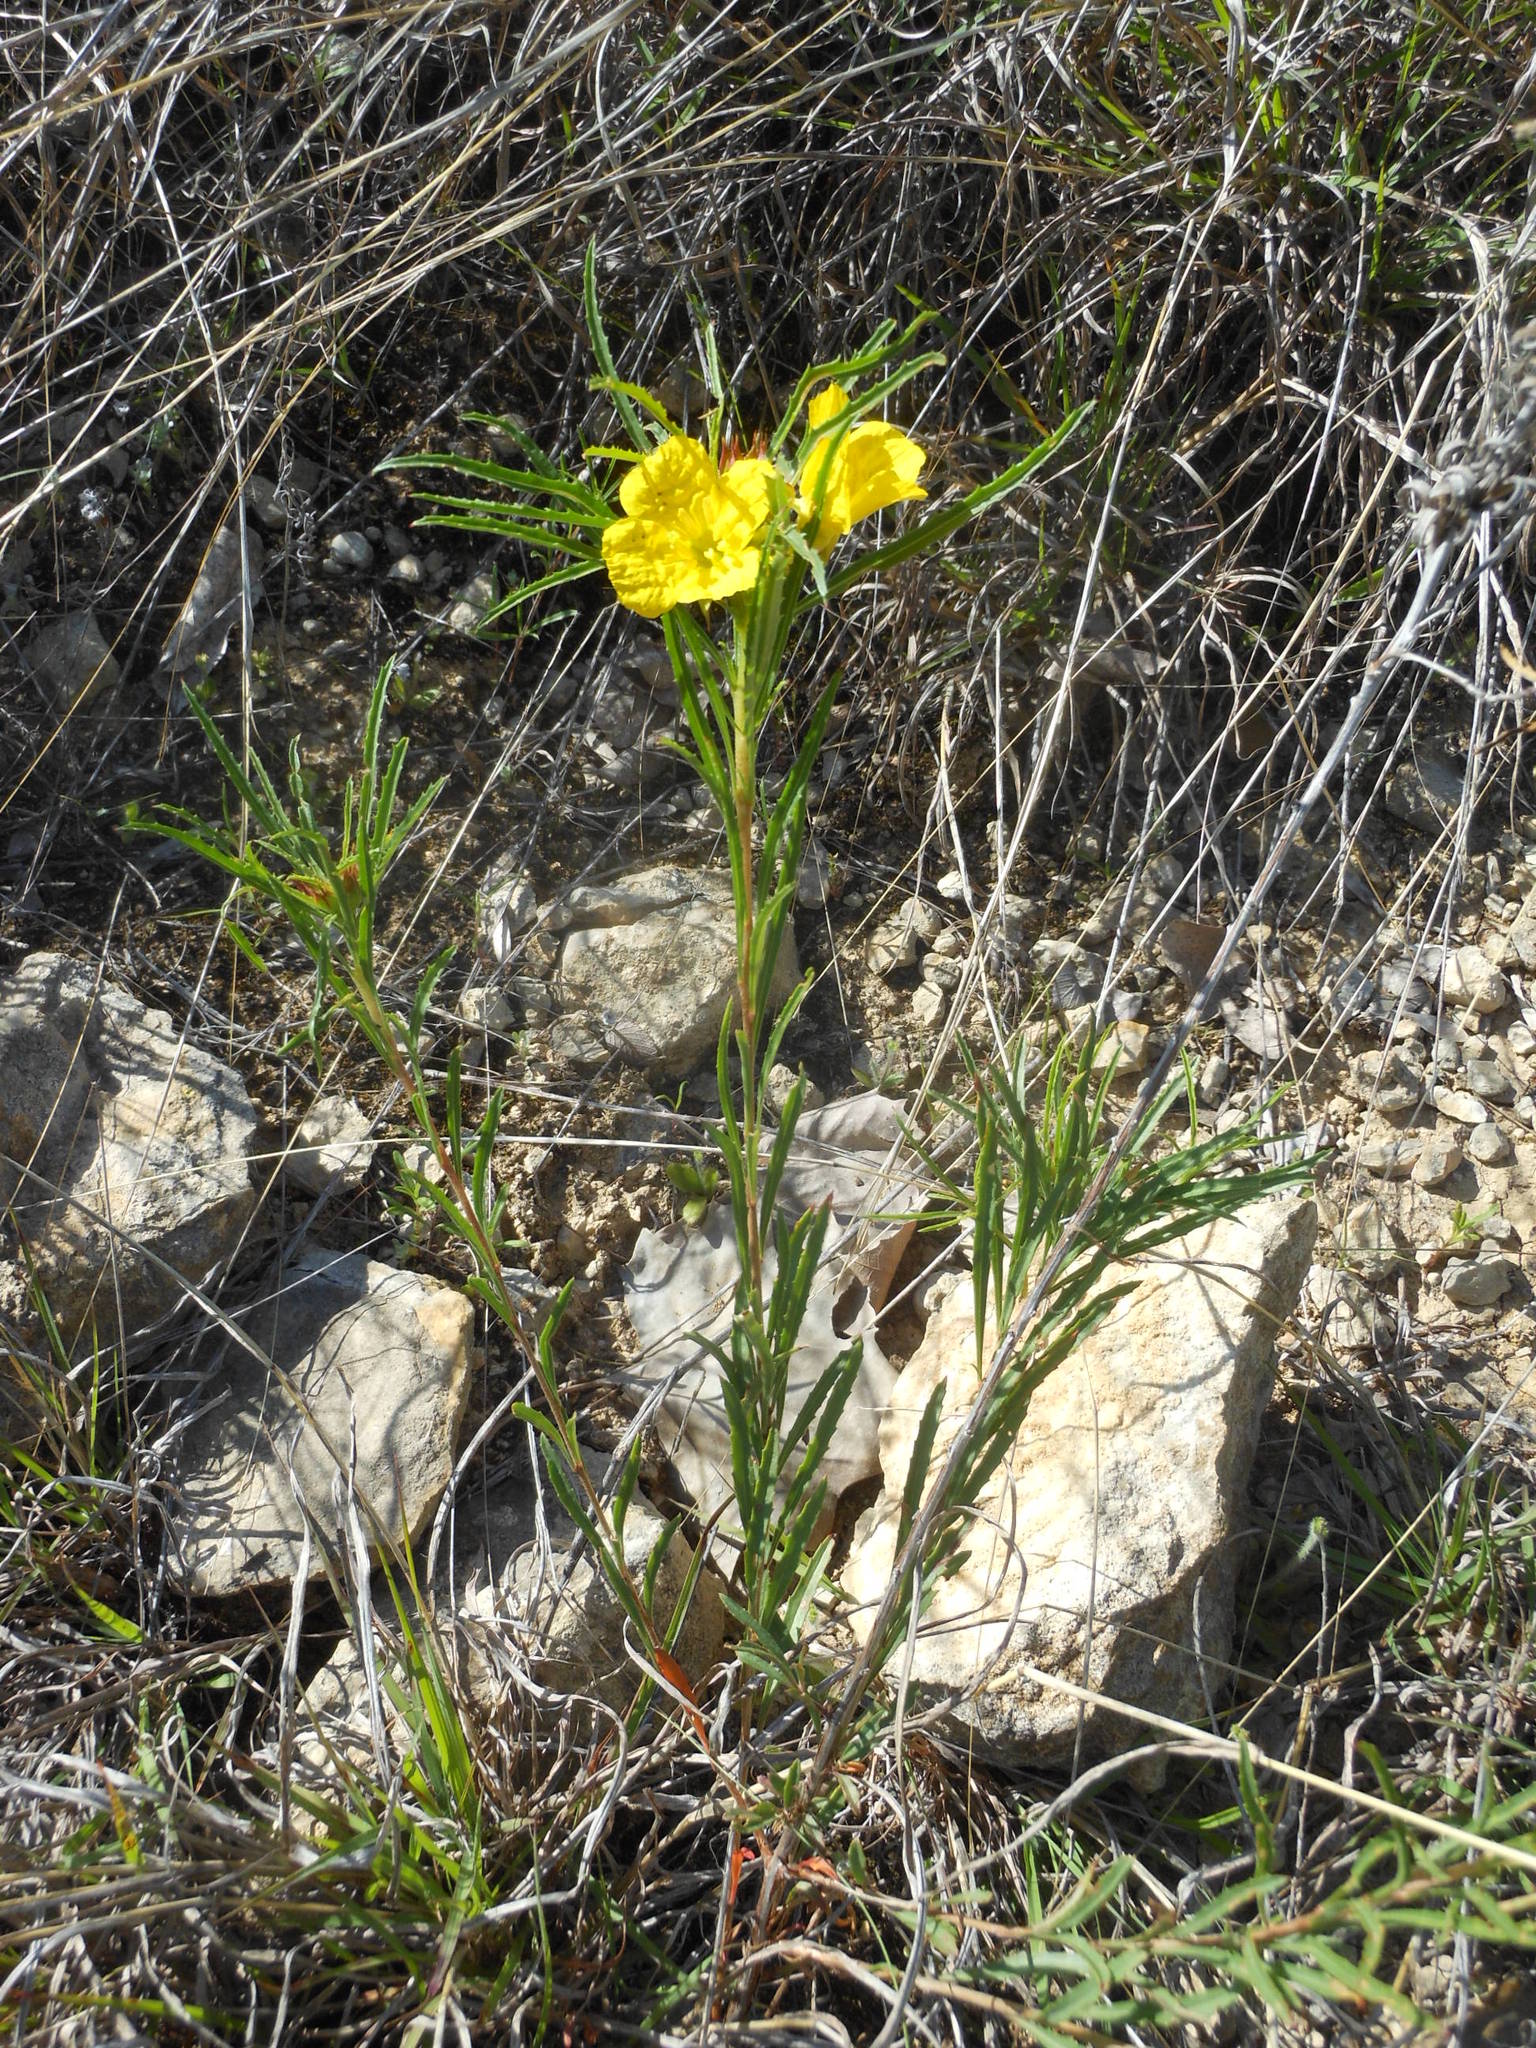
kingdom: Plantae
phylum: Tracheophyta
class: Magnoliopsida
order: Myrtales
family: Onagraceae
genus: Oenothera
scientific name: Oenothera
